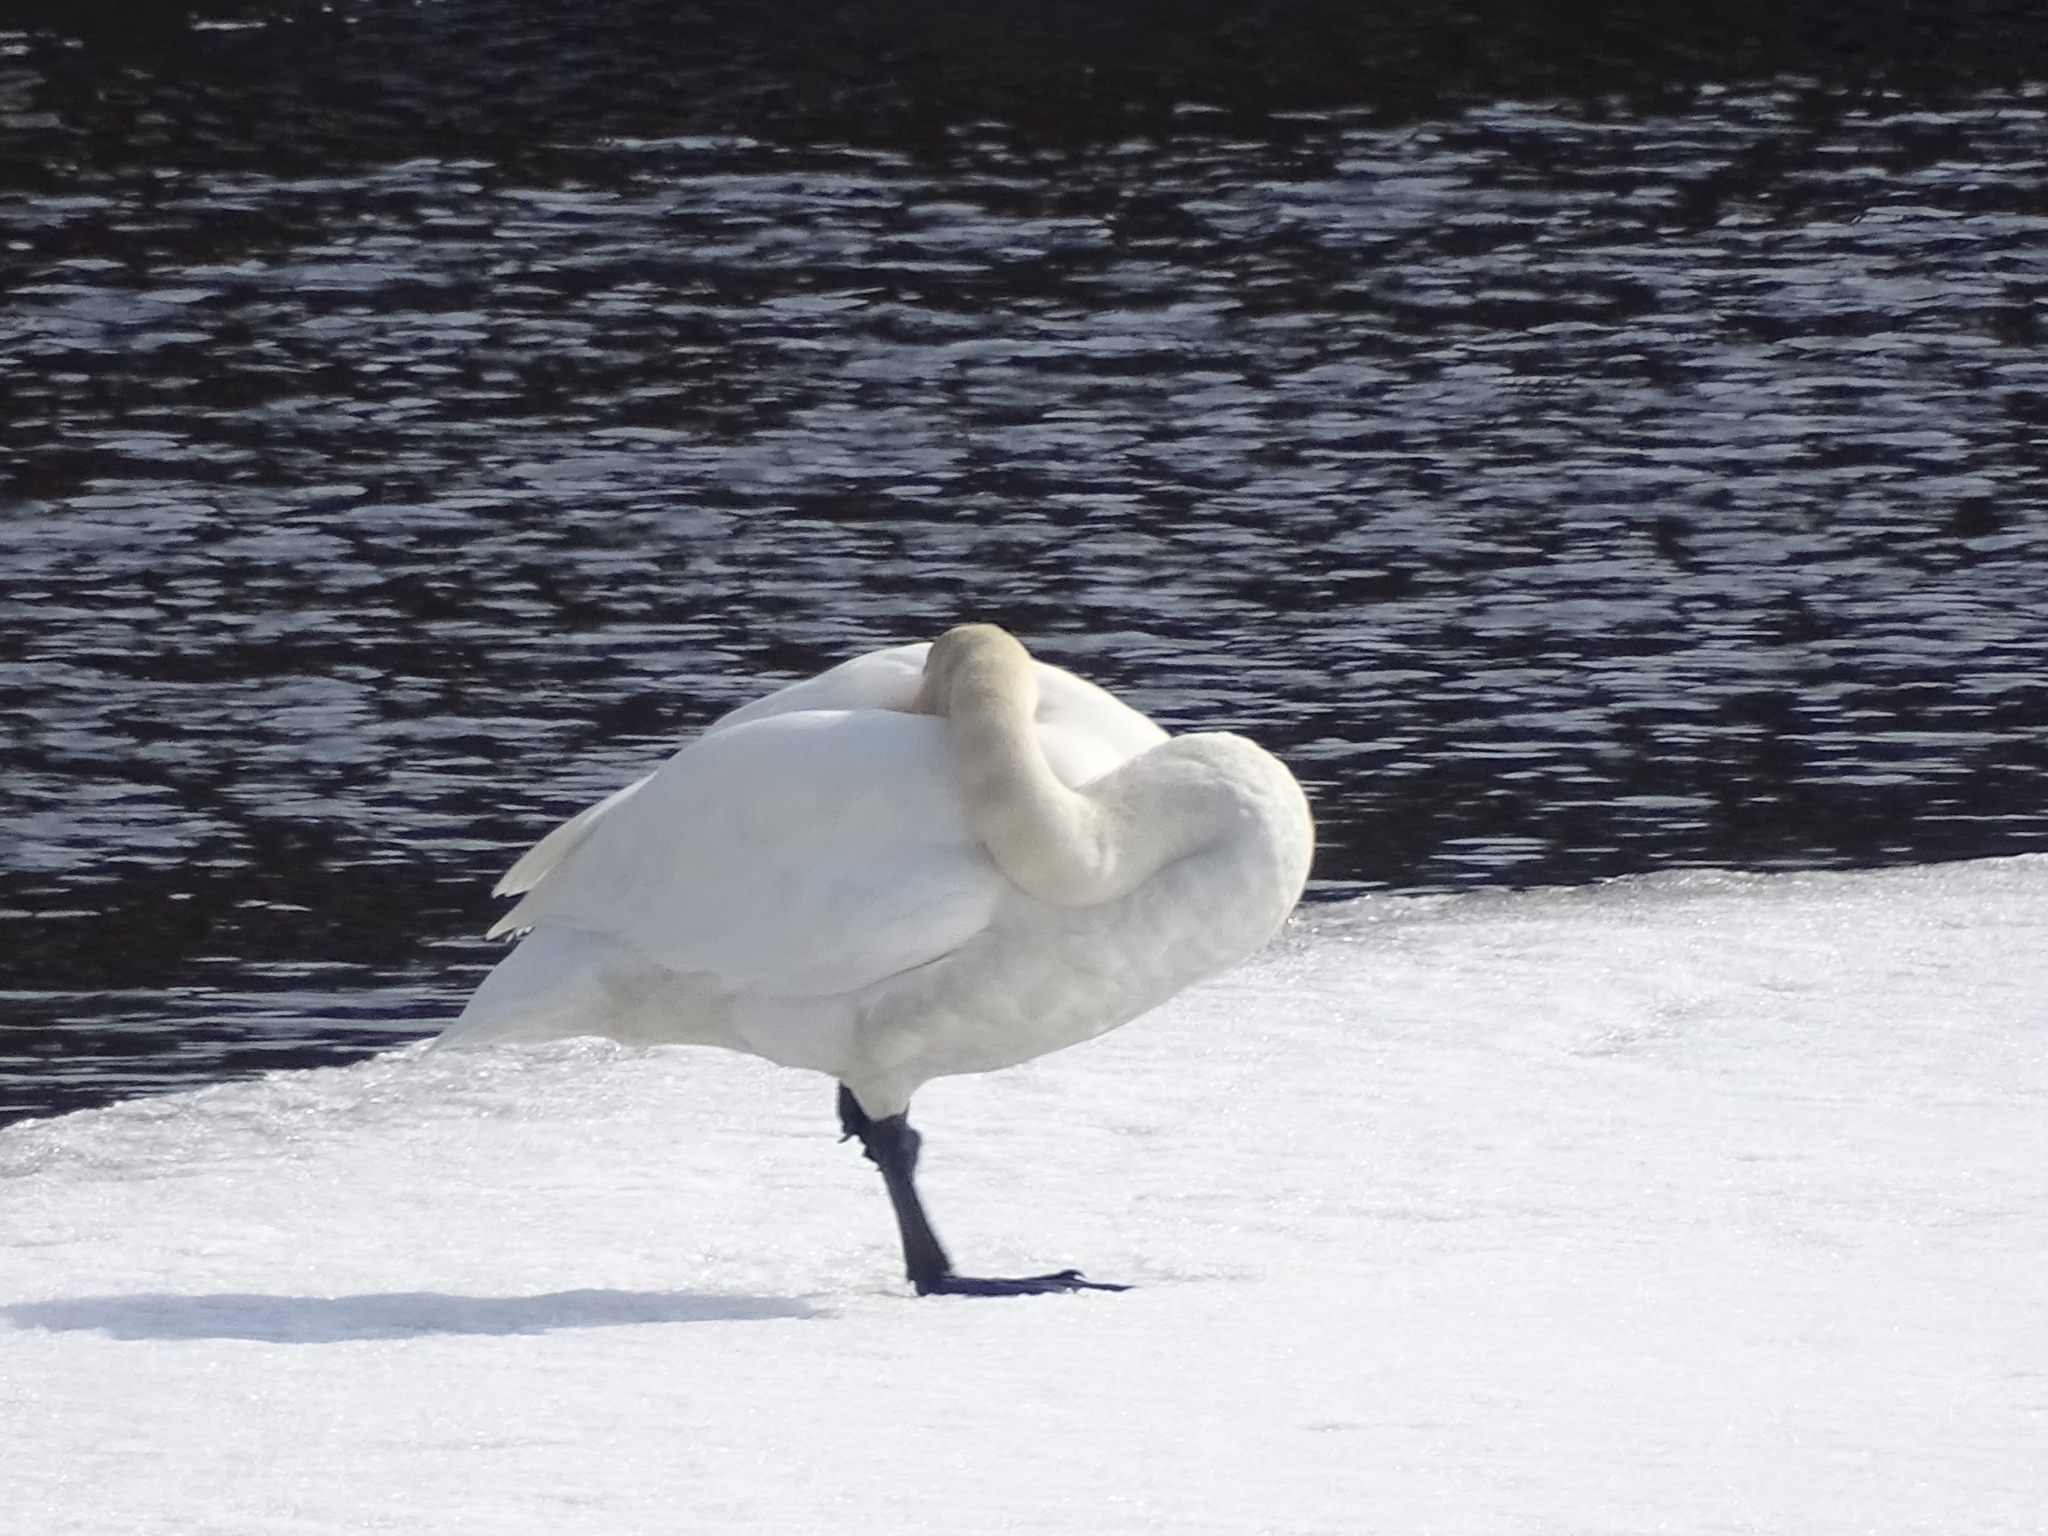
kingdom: Animalia
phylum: Chordata
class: Aves
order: Anseriformes
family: Anatidae
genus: Cygnus
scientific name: Cygnus cygnus
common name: Whooper swan
